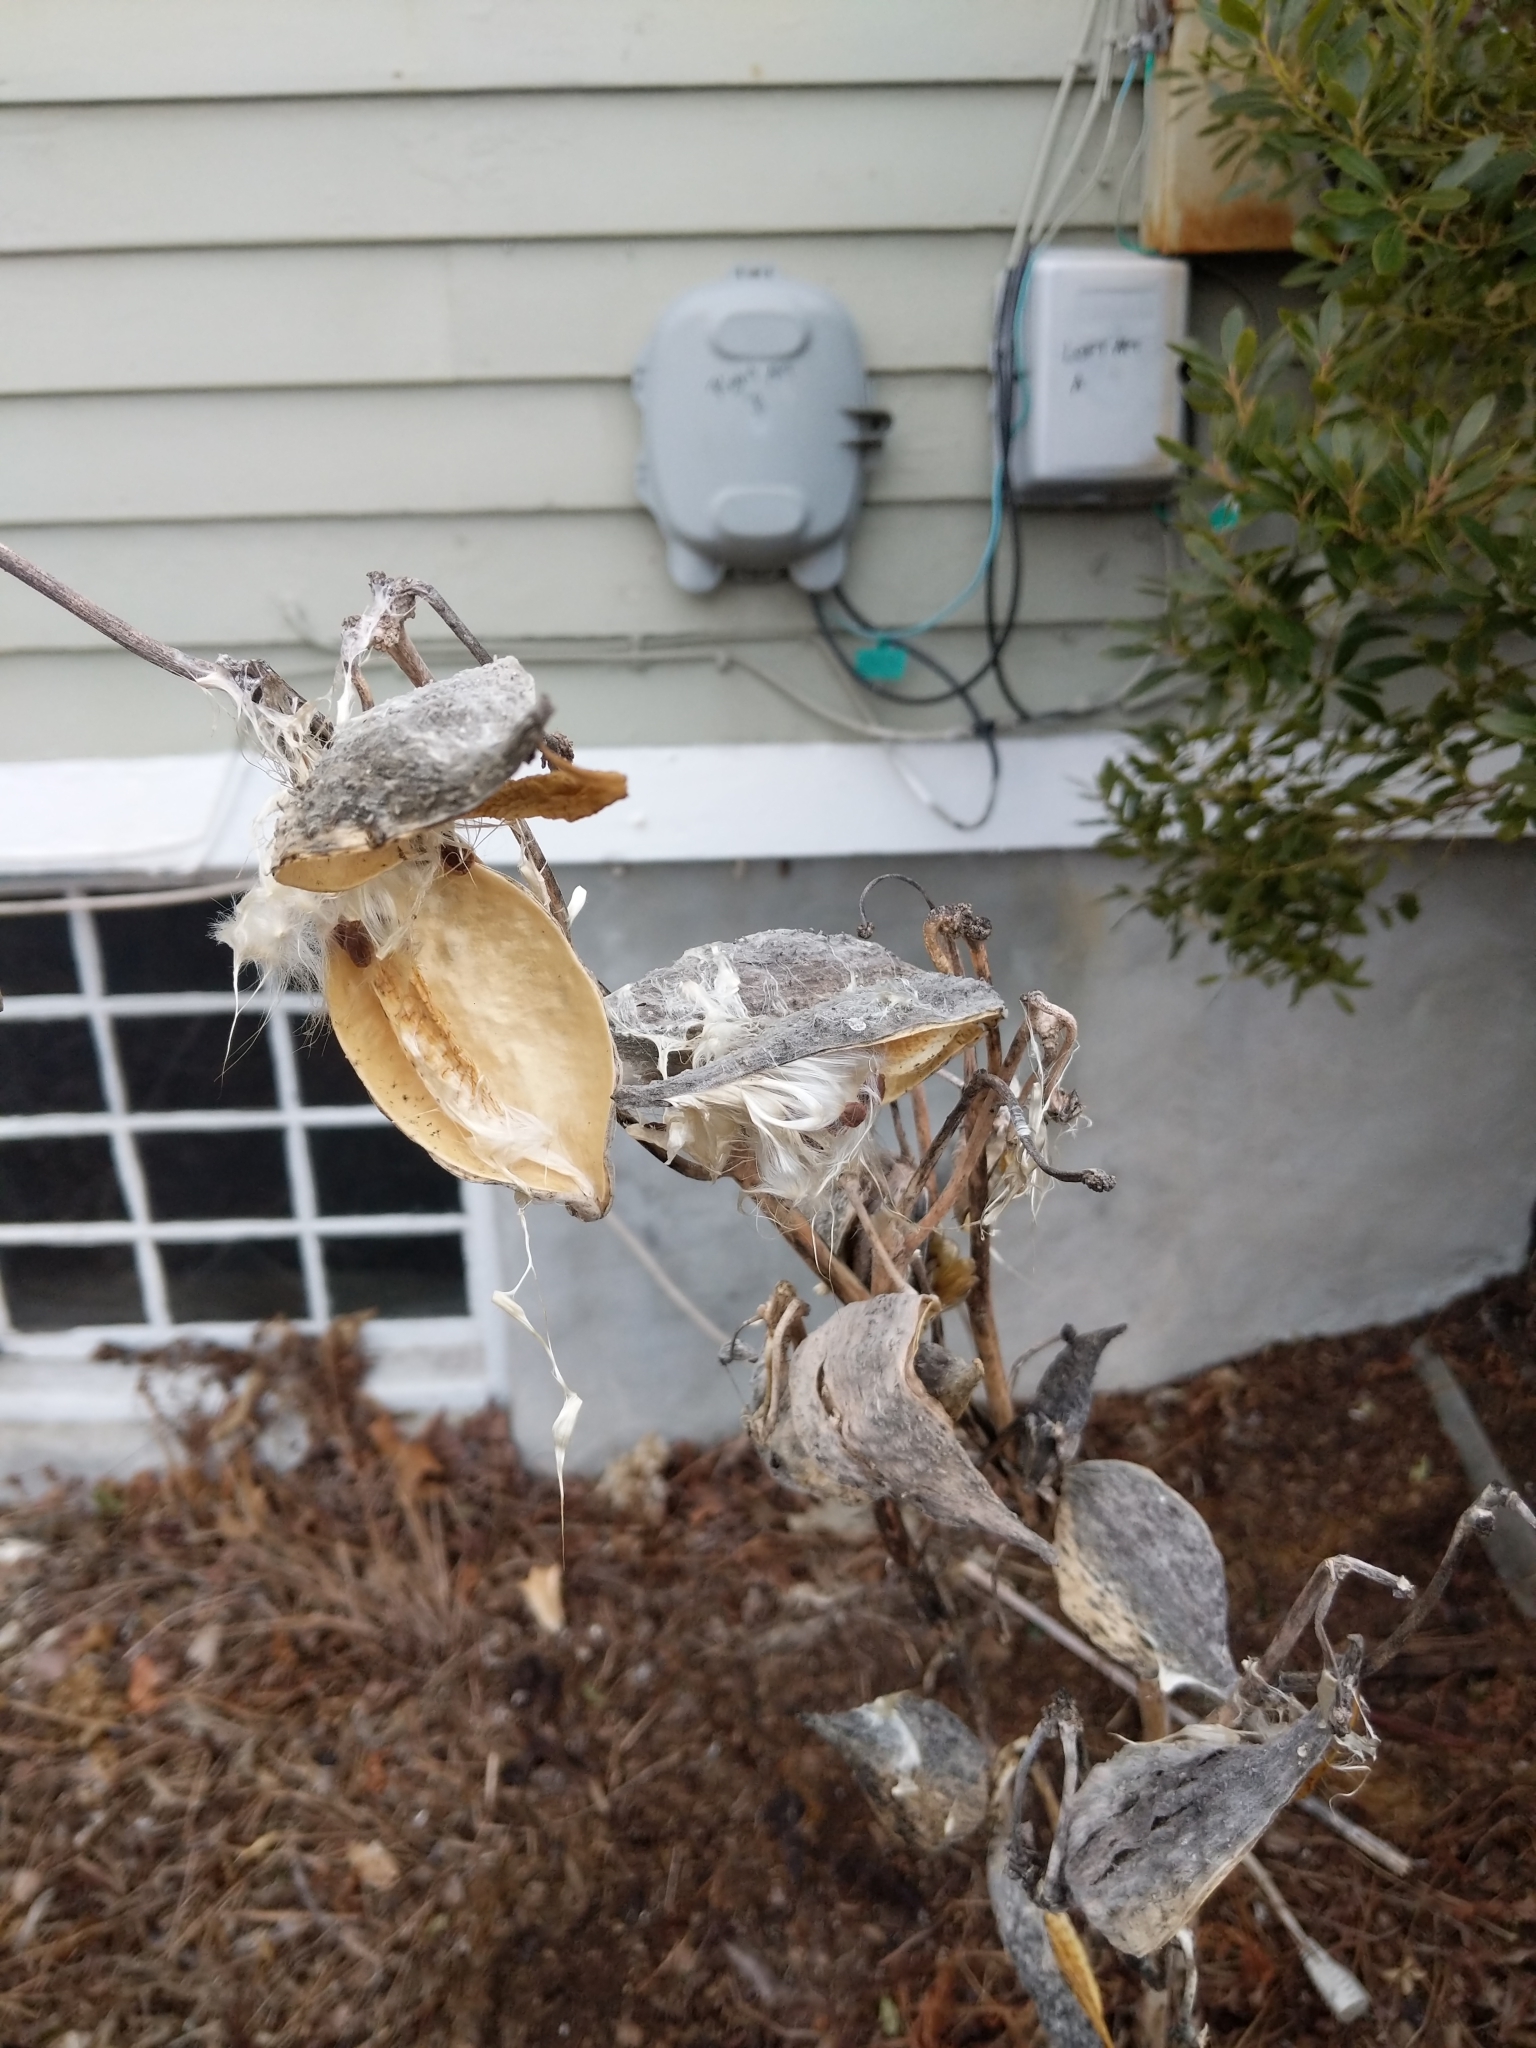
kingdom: Plantae
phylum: Tracheophyta
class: Magnoliopsida
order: Gentianales
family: Apocynaceae
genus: Asclepias
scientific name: Asclepias syriaca
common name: Common milkweed
